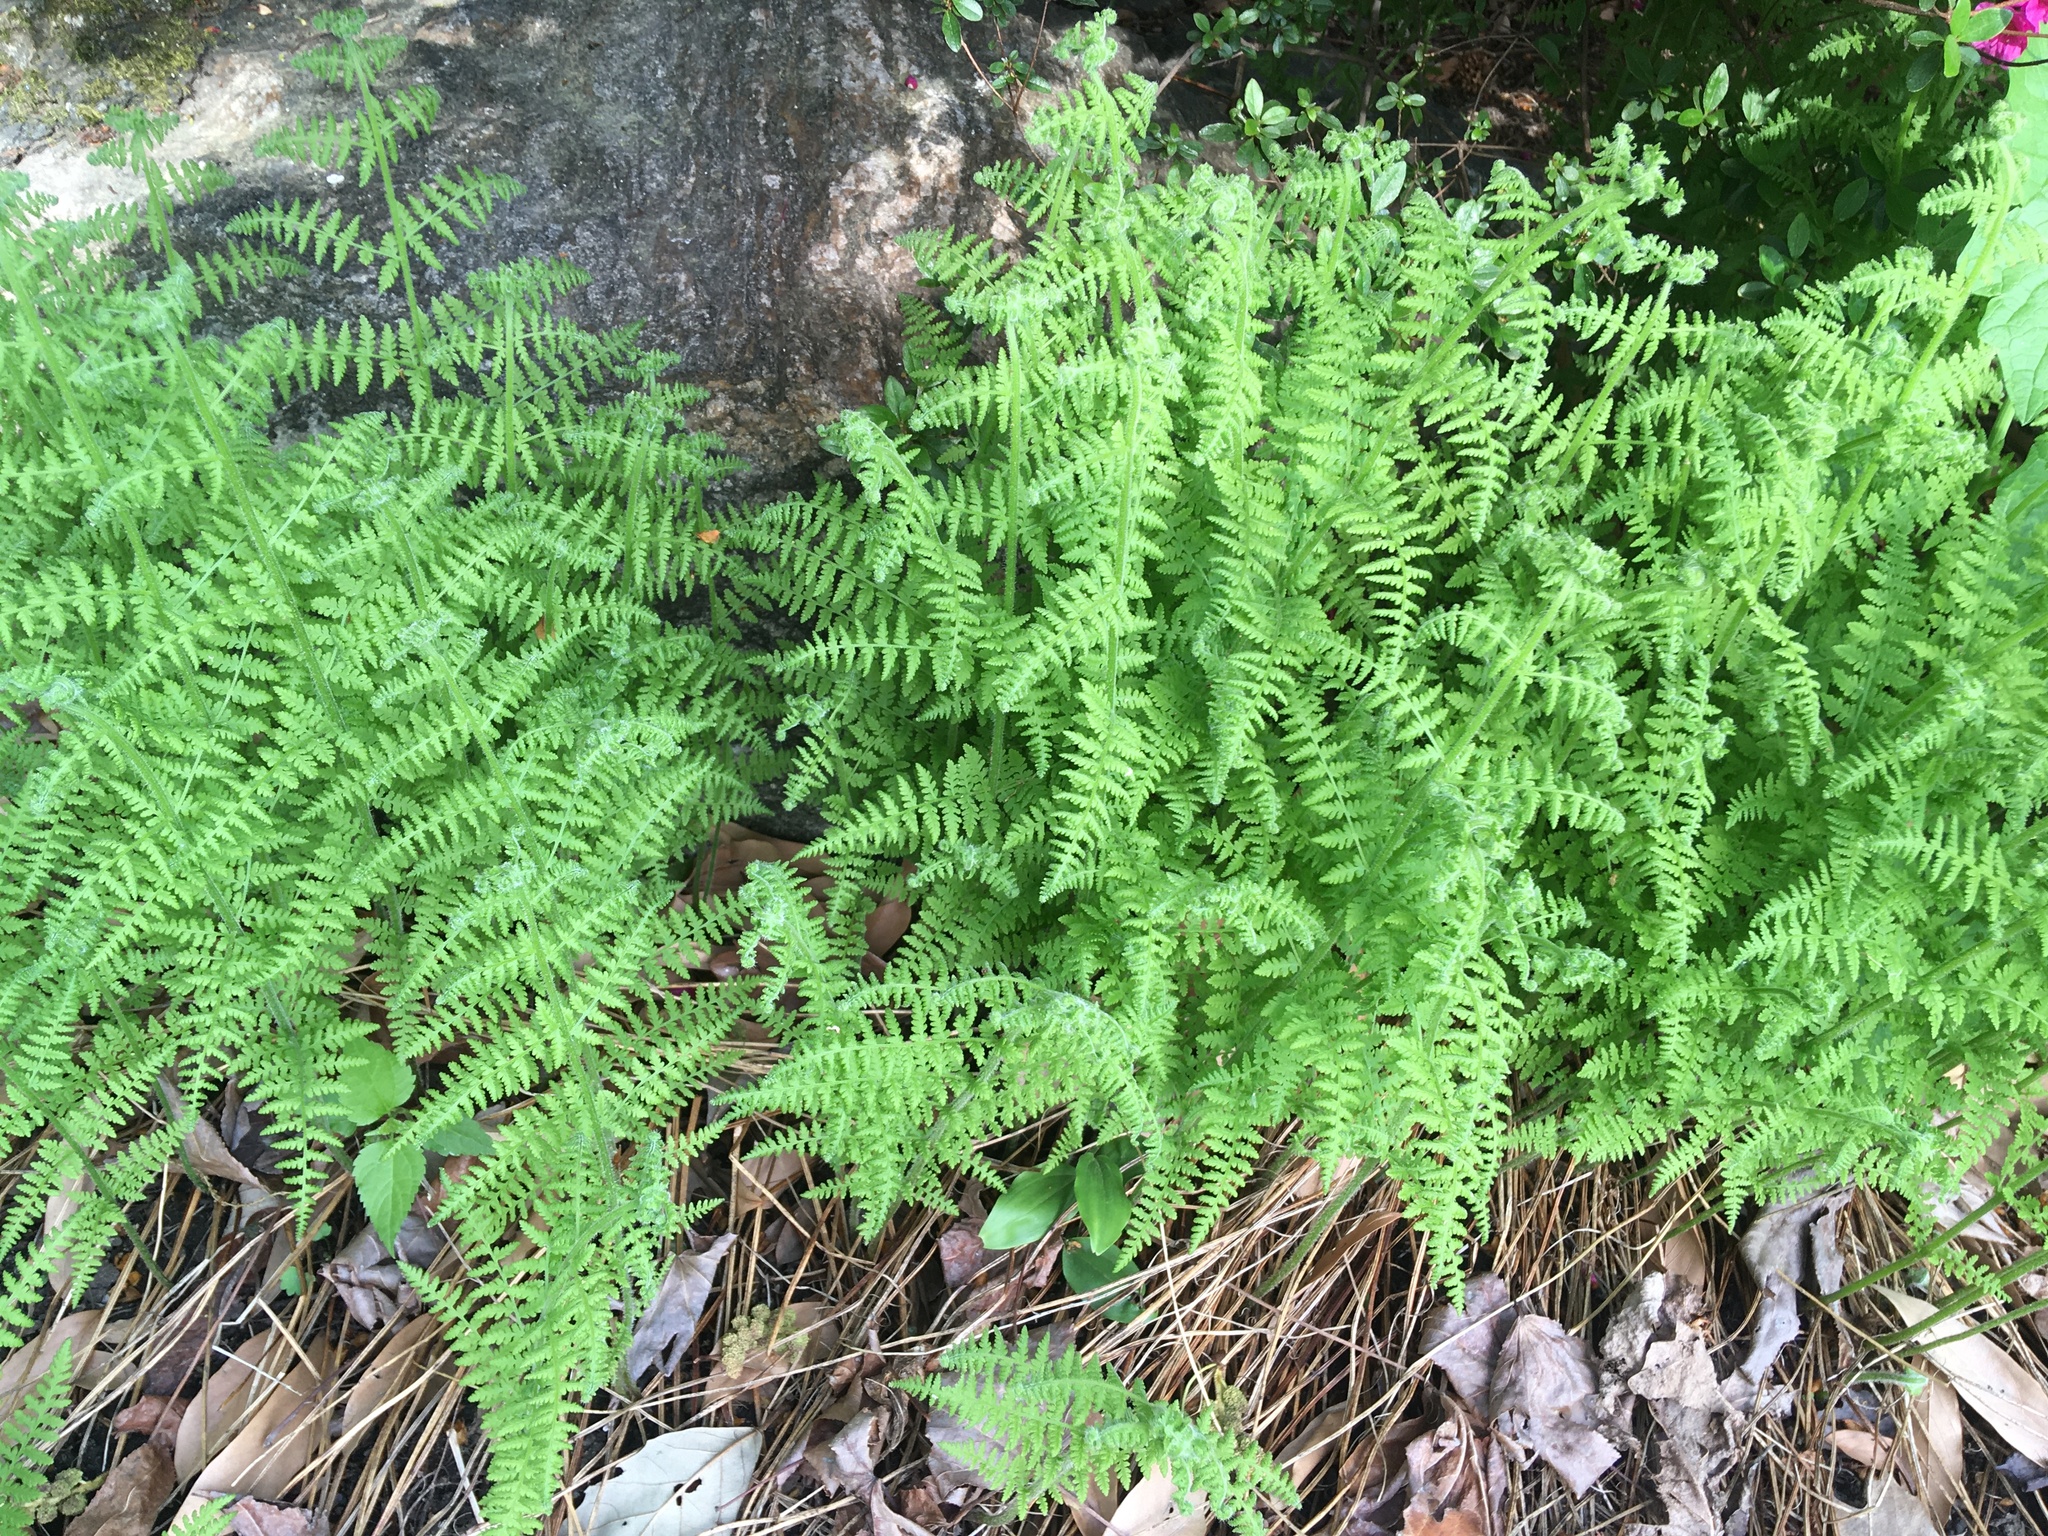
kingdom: Plantae
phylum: Tracheophyta
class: Polypodiopsida
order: Polypodiales
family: Dennstaedtiaceae
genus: Sitobolium
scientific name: Sitobolium punctilobum
